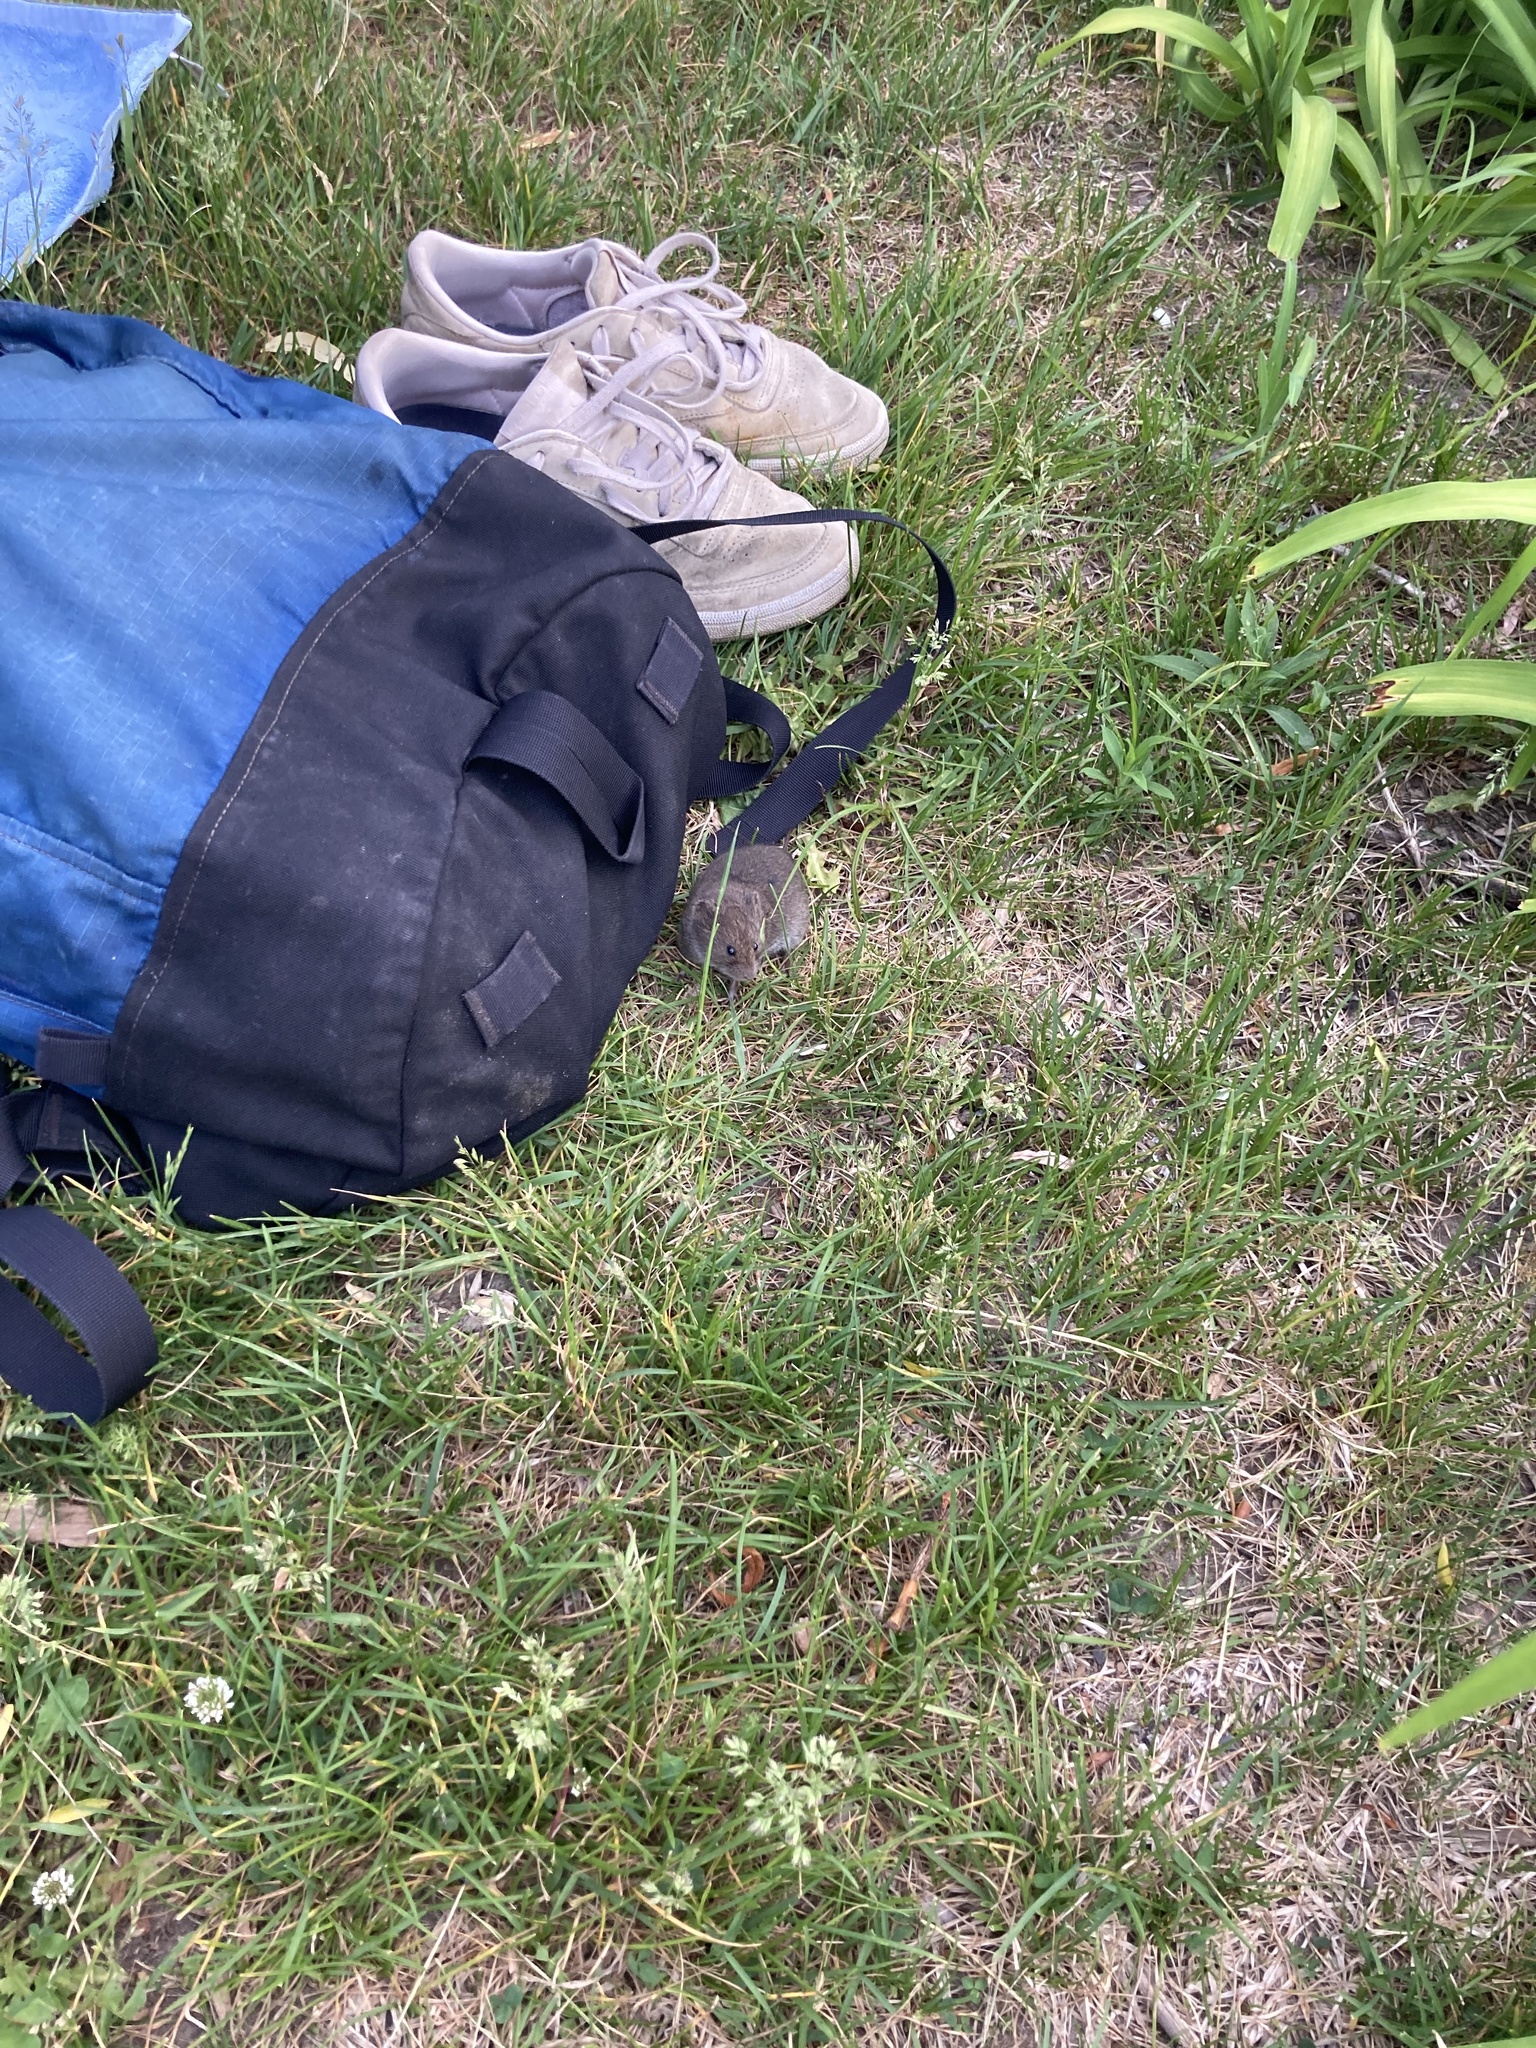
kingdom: Animalia
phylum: Chordata
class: Mammalia
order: Rodentia
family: Cricetidae
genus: Microtus
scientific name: Microtus pennsylvanicus
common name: Meadow vole
